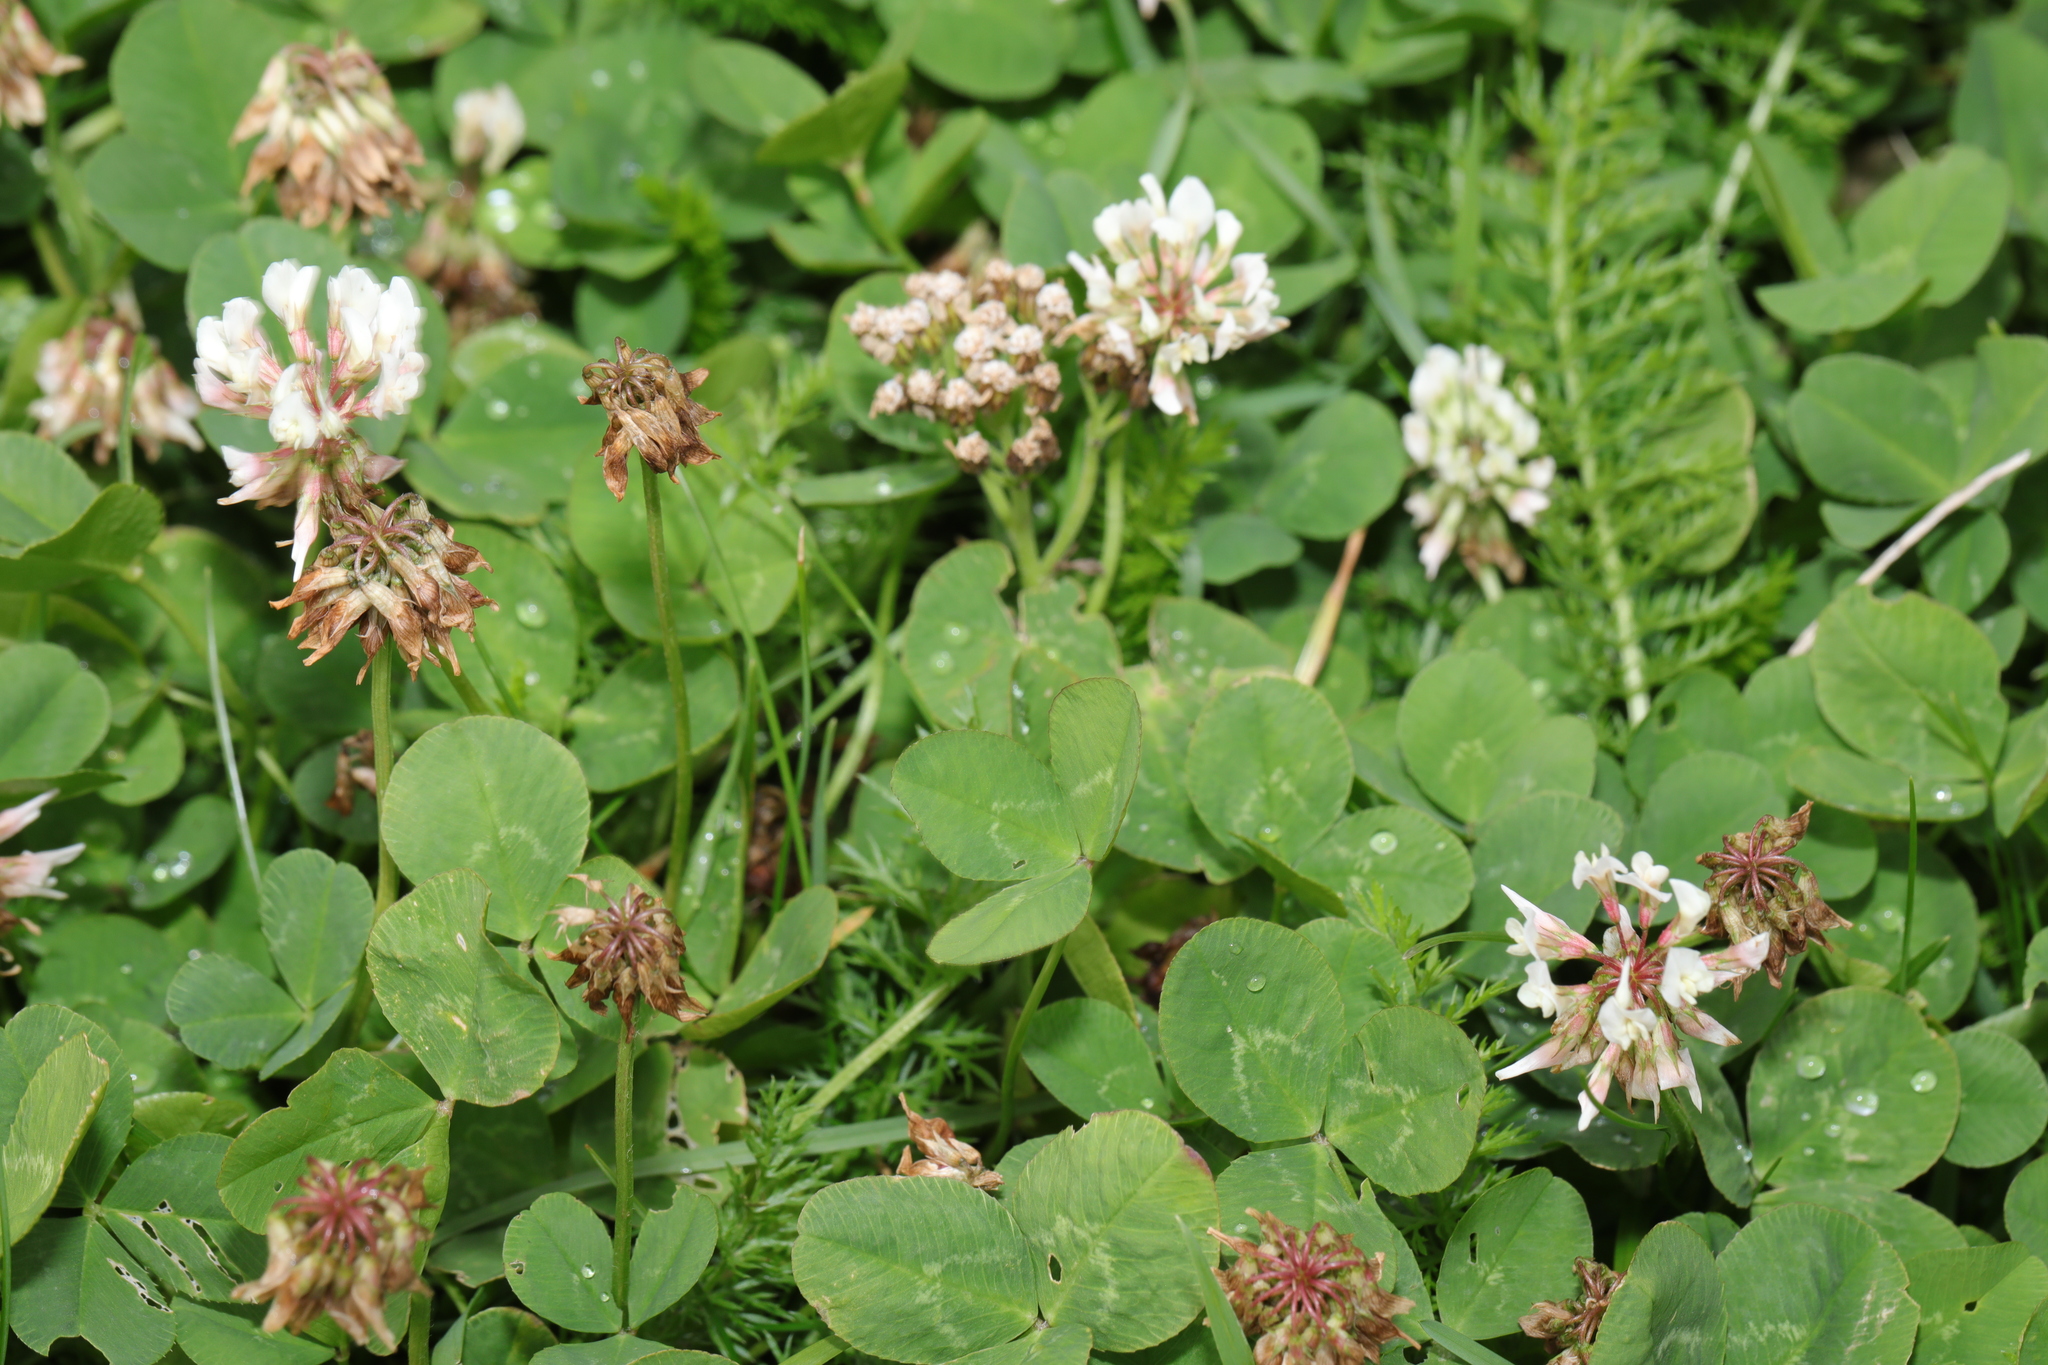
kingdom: Plantae
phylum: Tracheophyta
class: Magnoliopsida
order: Fabales
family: Fabaceae
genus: Trifolium
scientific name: Trifolium repens
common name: White clover
